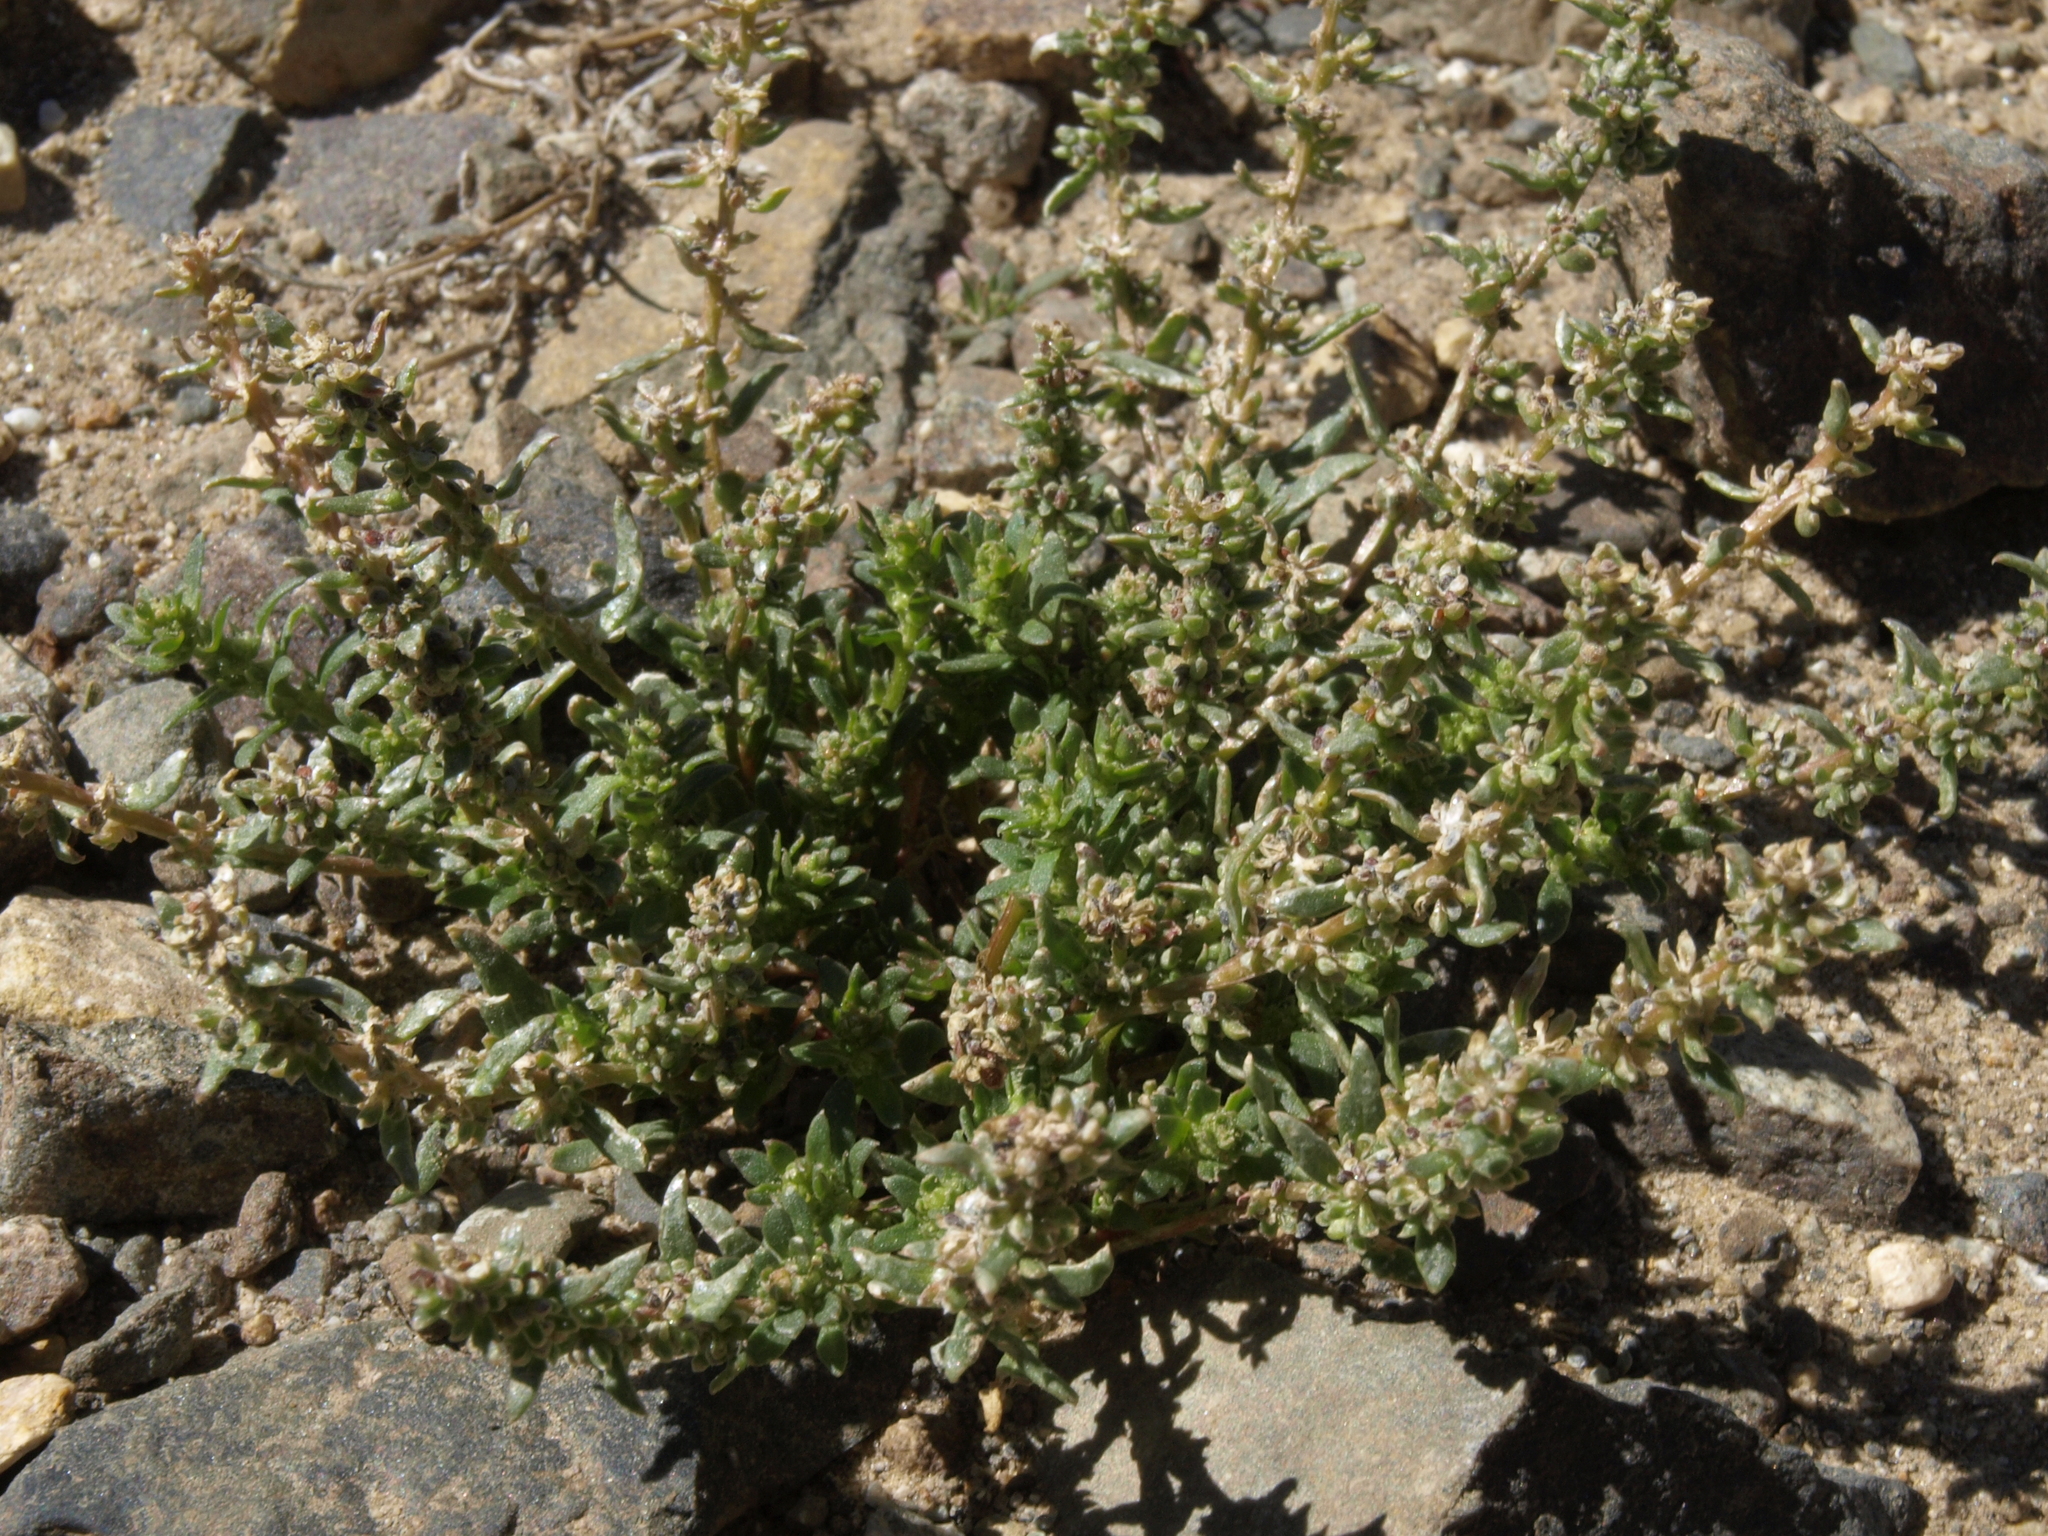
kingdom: Plantae
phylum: Tracheophyta
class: Magnoliopsida
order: Caryophyllales
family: Amaranthaceae
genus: Blitum
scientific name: Blitum nuttallianum
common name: Poverty-weed
